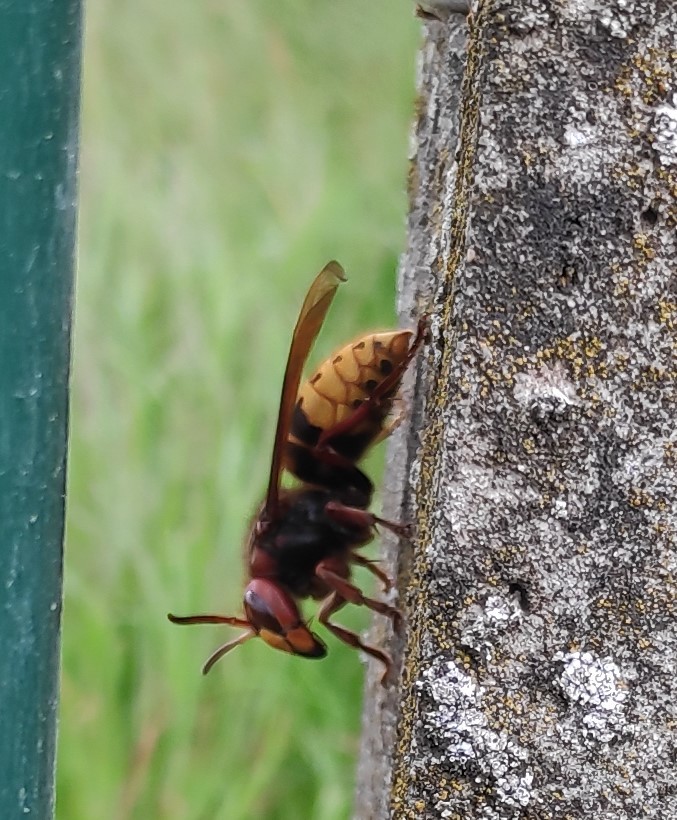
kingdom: Animalia
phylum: Arthropoda
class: Insecta
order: Hymenoptera
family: Vespidae
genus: Vespa
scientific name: Vespa crabro
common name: Hornet
